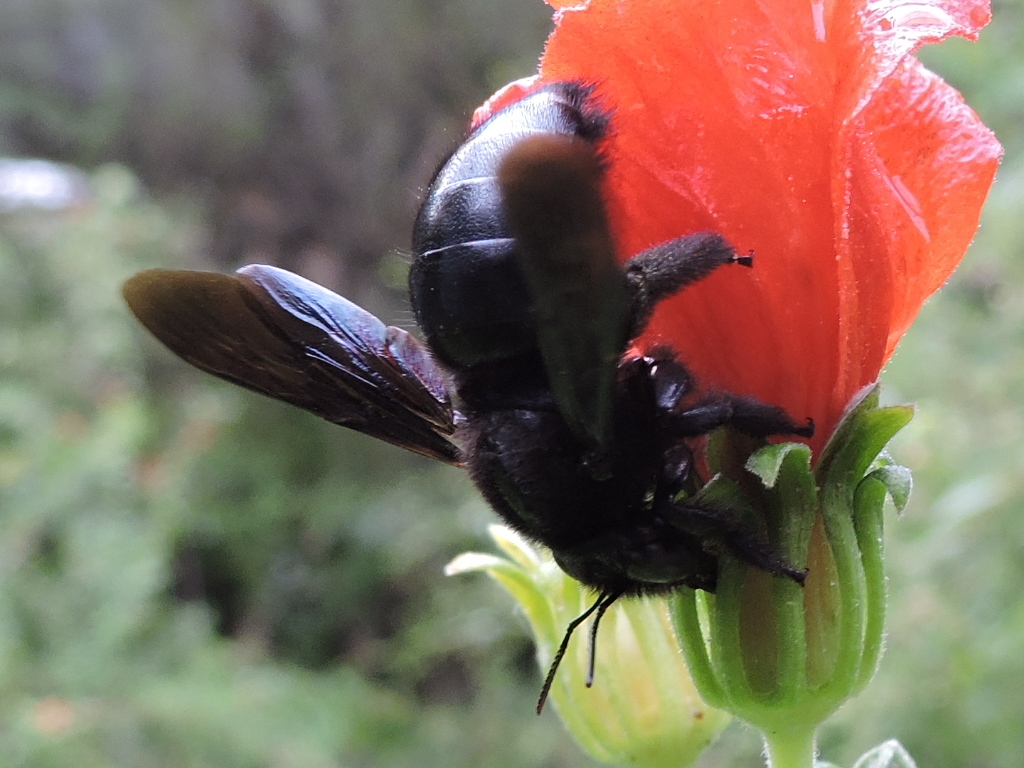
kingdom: Animalia
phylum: Arthropoda
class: Insecta
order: Hymenoptera
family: Apidae
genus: Xylocopa
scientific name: Xylocopa micans
